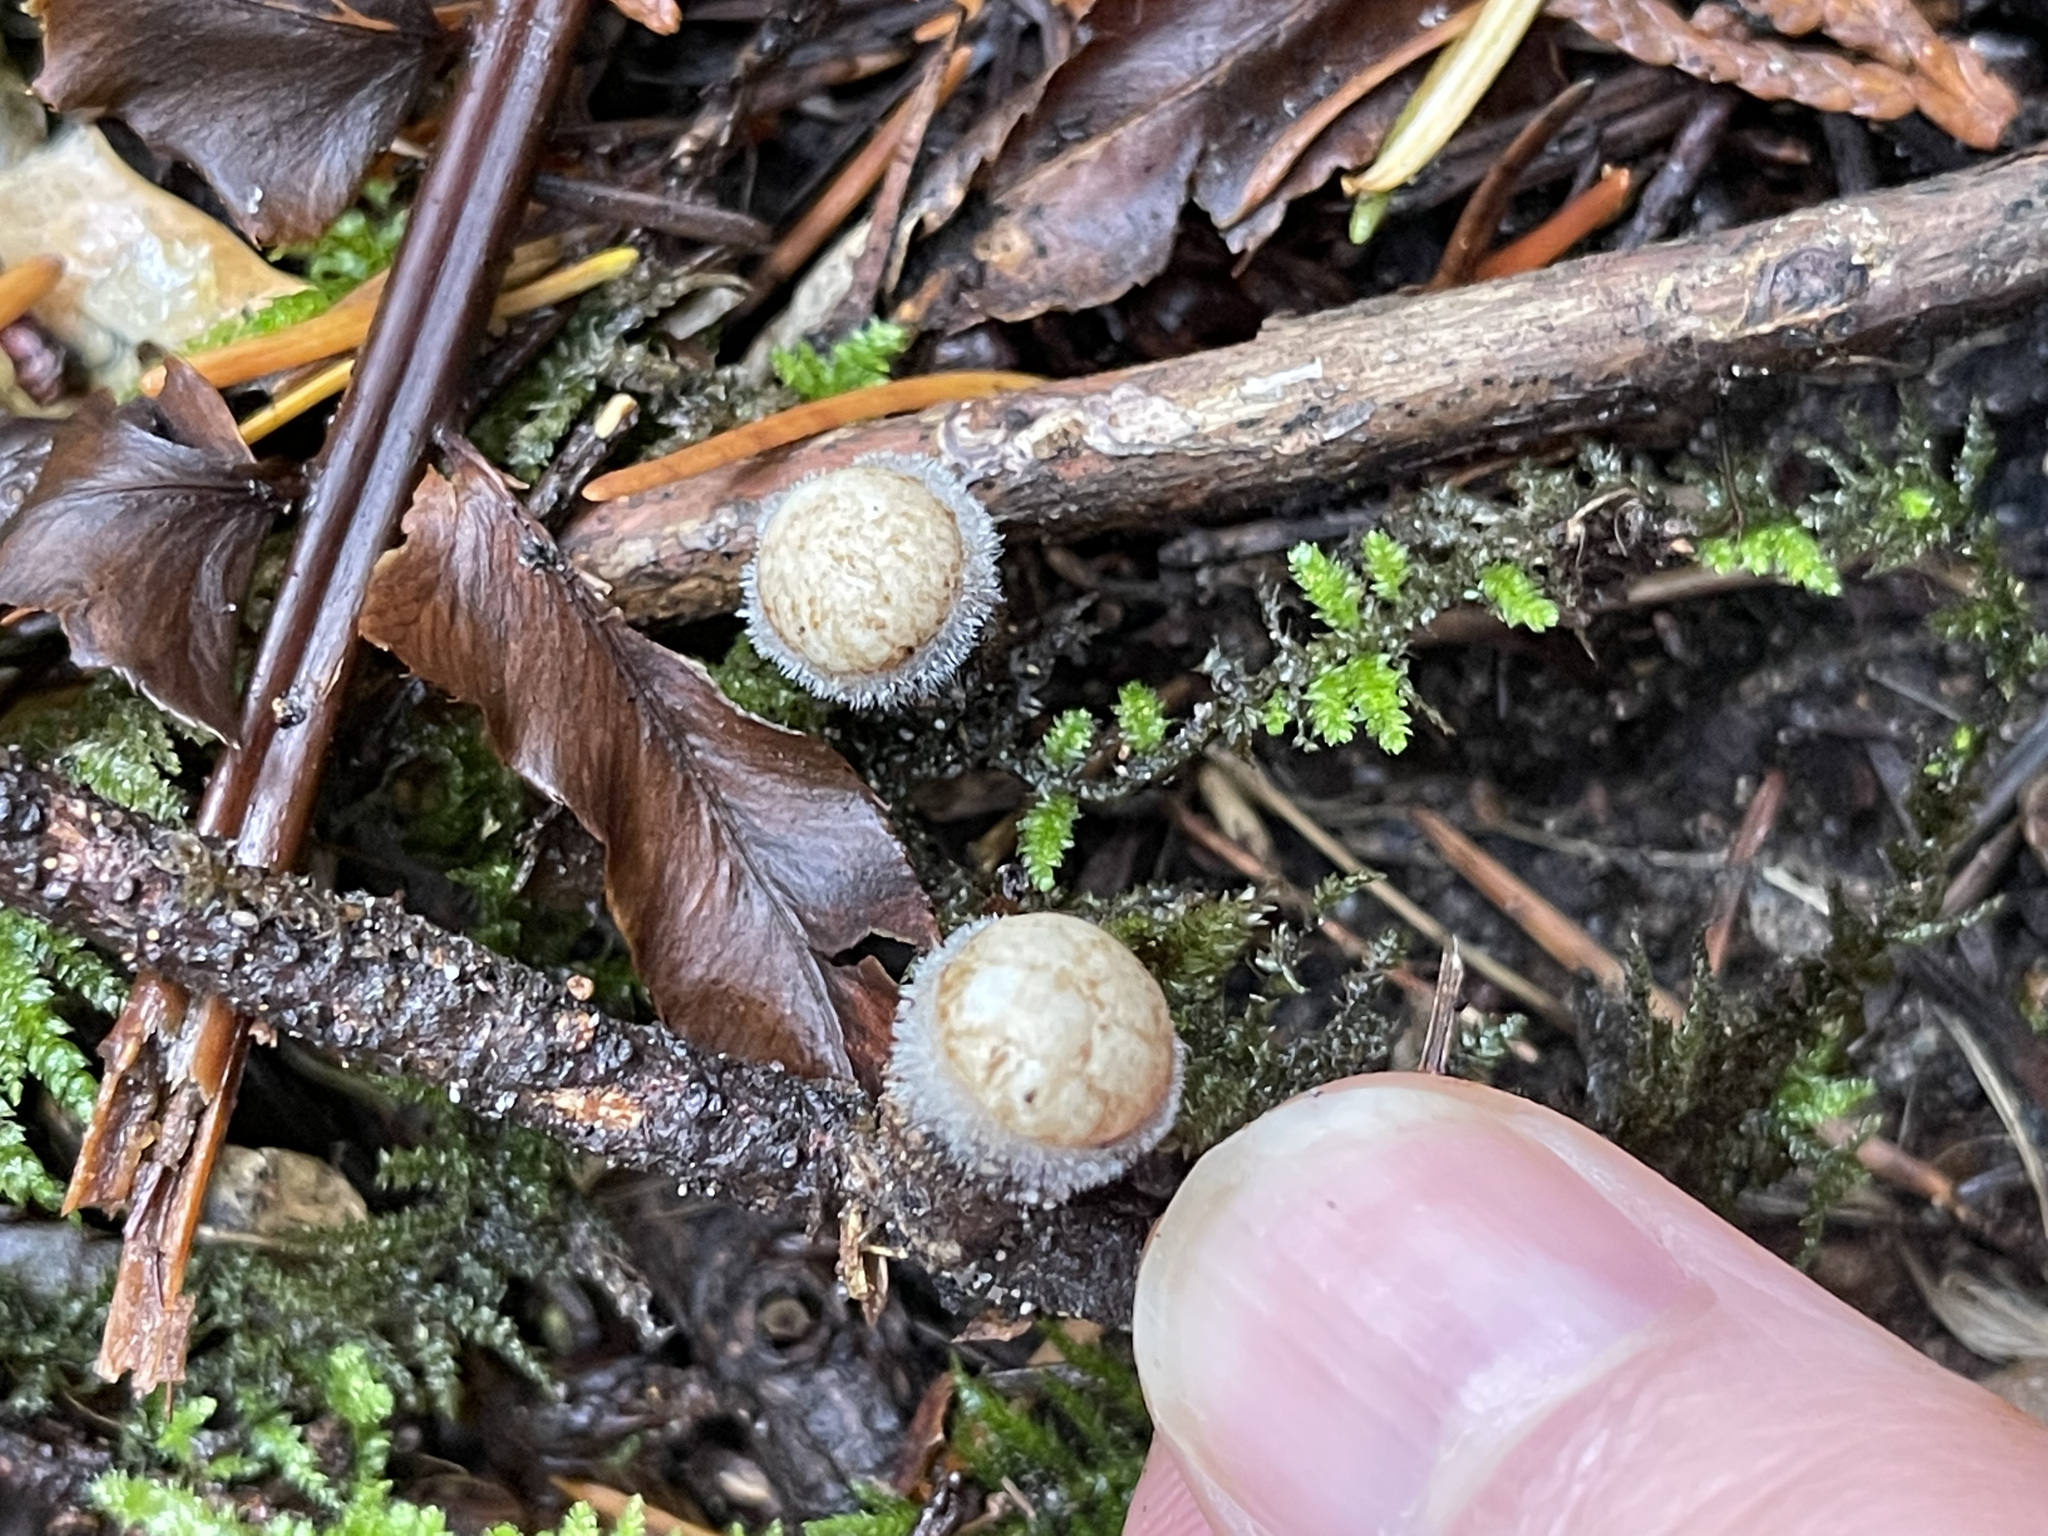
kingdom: Fungi
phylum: Basidiomycota
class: Agaricomycetes
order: Agaricales
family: Agaricaceae
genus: Nidula
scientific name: Nidula candida
